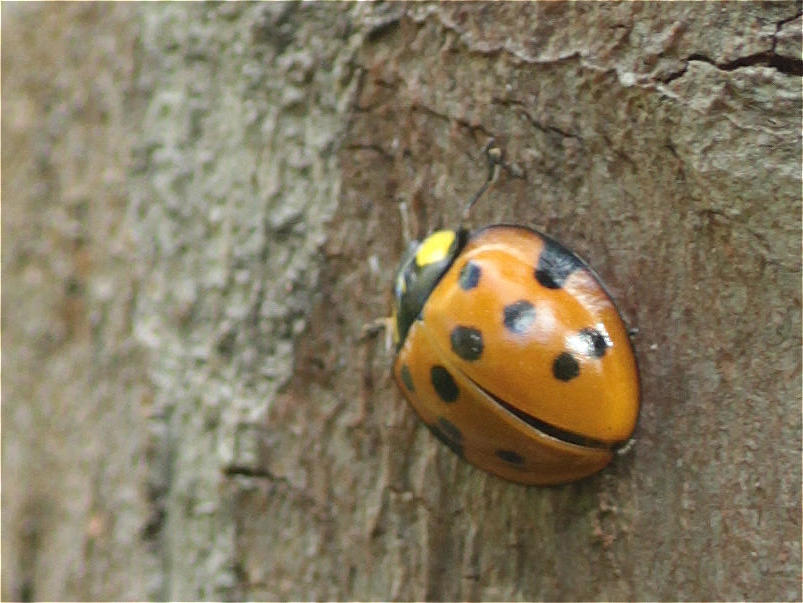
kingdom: Animalia
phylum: Arthropoda
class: Insecta
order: Coleoptera
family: Coccinellidae
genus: Neda
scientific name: Neda aequatoriana
